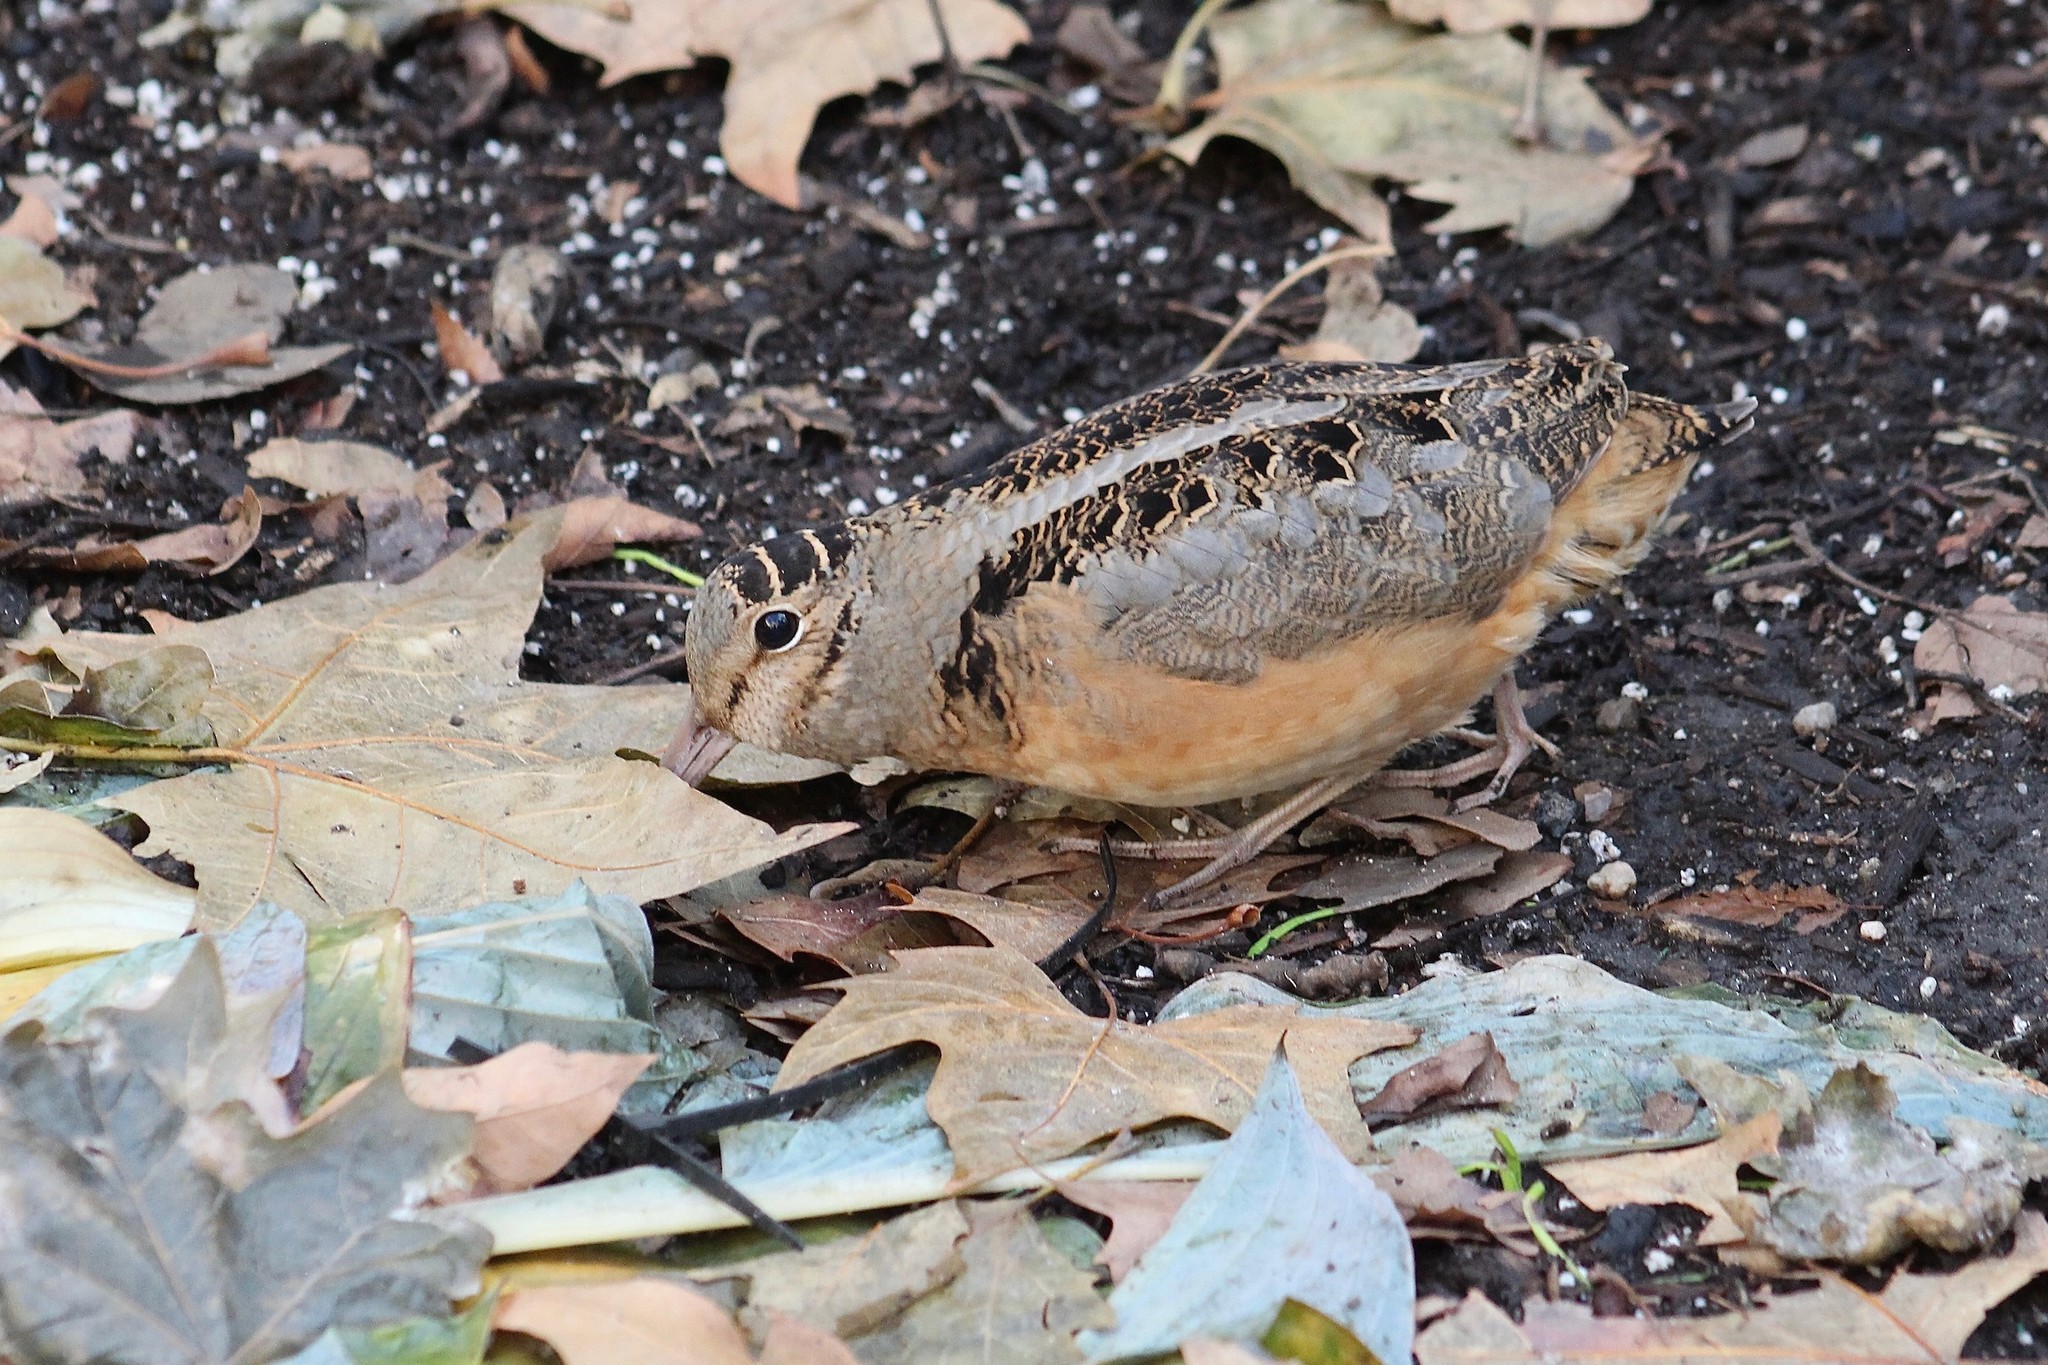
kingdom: Animalia
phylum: Chordata
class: Aves
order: Charadriiformes
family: Scolopacidae
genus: Scolopax
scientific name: Scolopax minor
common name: American woodcock
